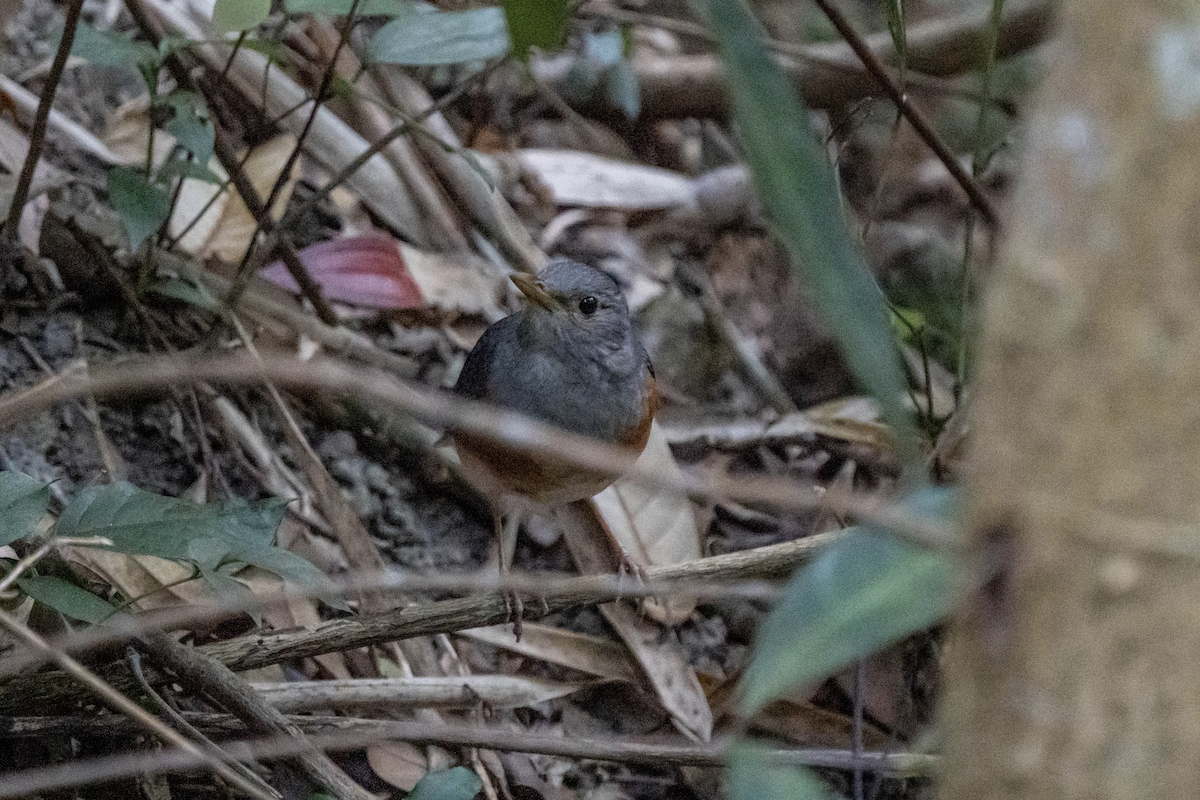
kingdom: Animalia
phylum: Chordata
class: Aves
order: Passeriformes
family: Turdidae
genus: Turdus
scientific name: Turdus hortulorum
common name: Grey-backed thrush
